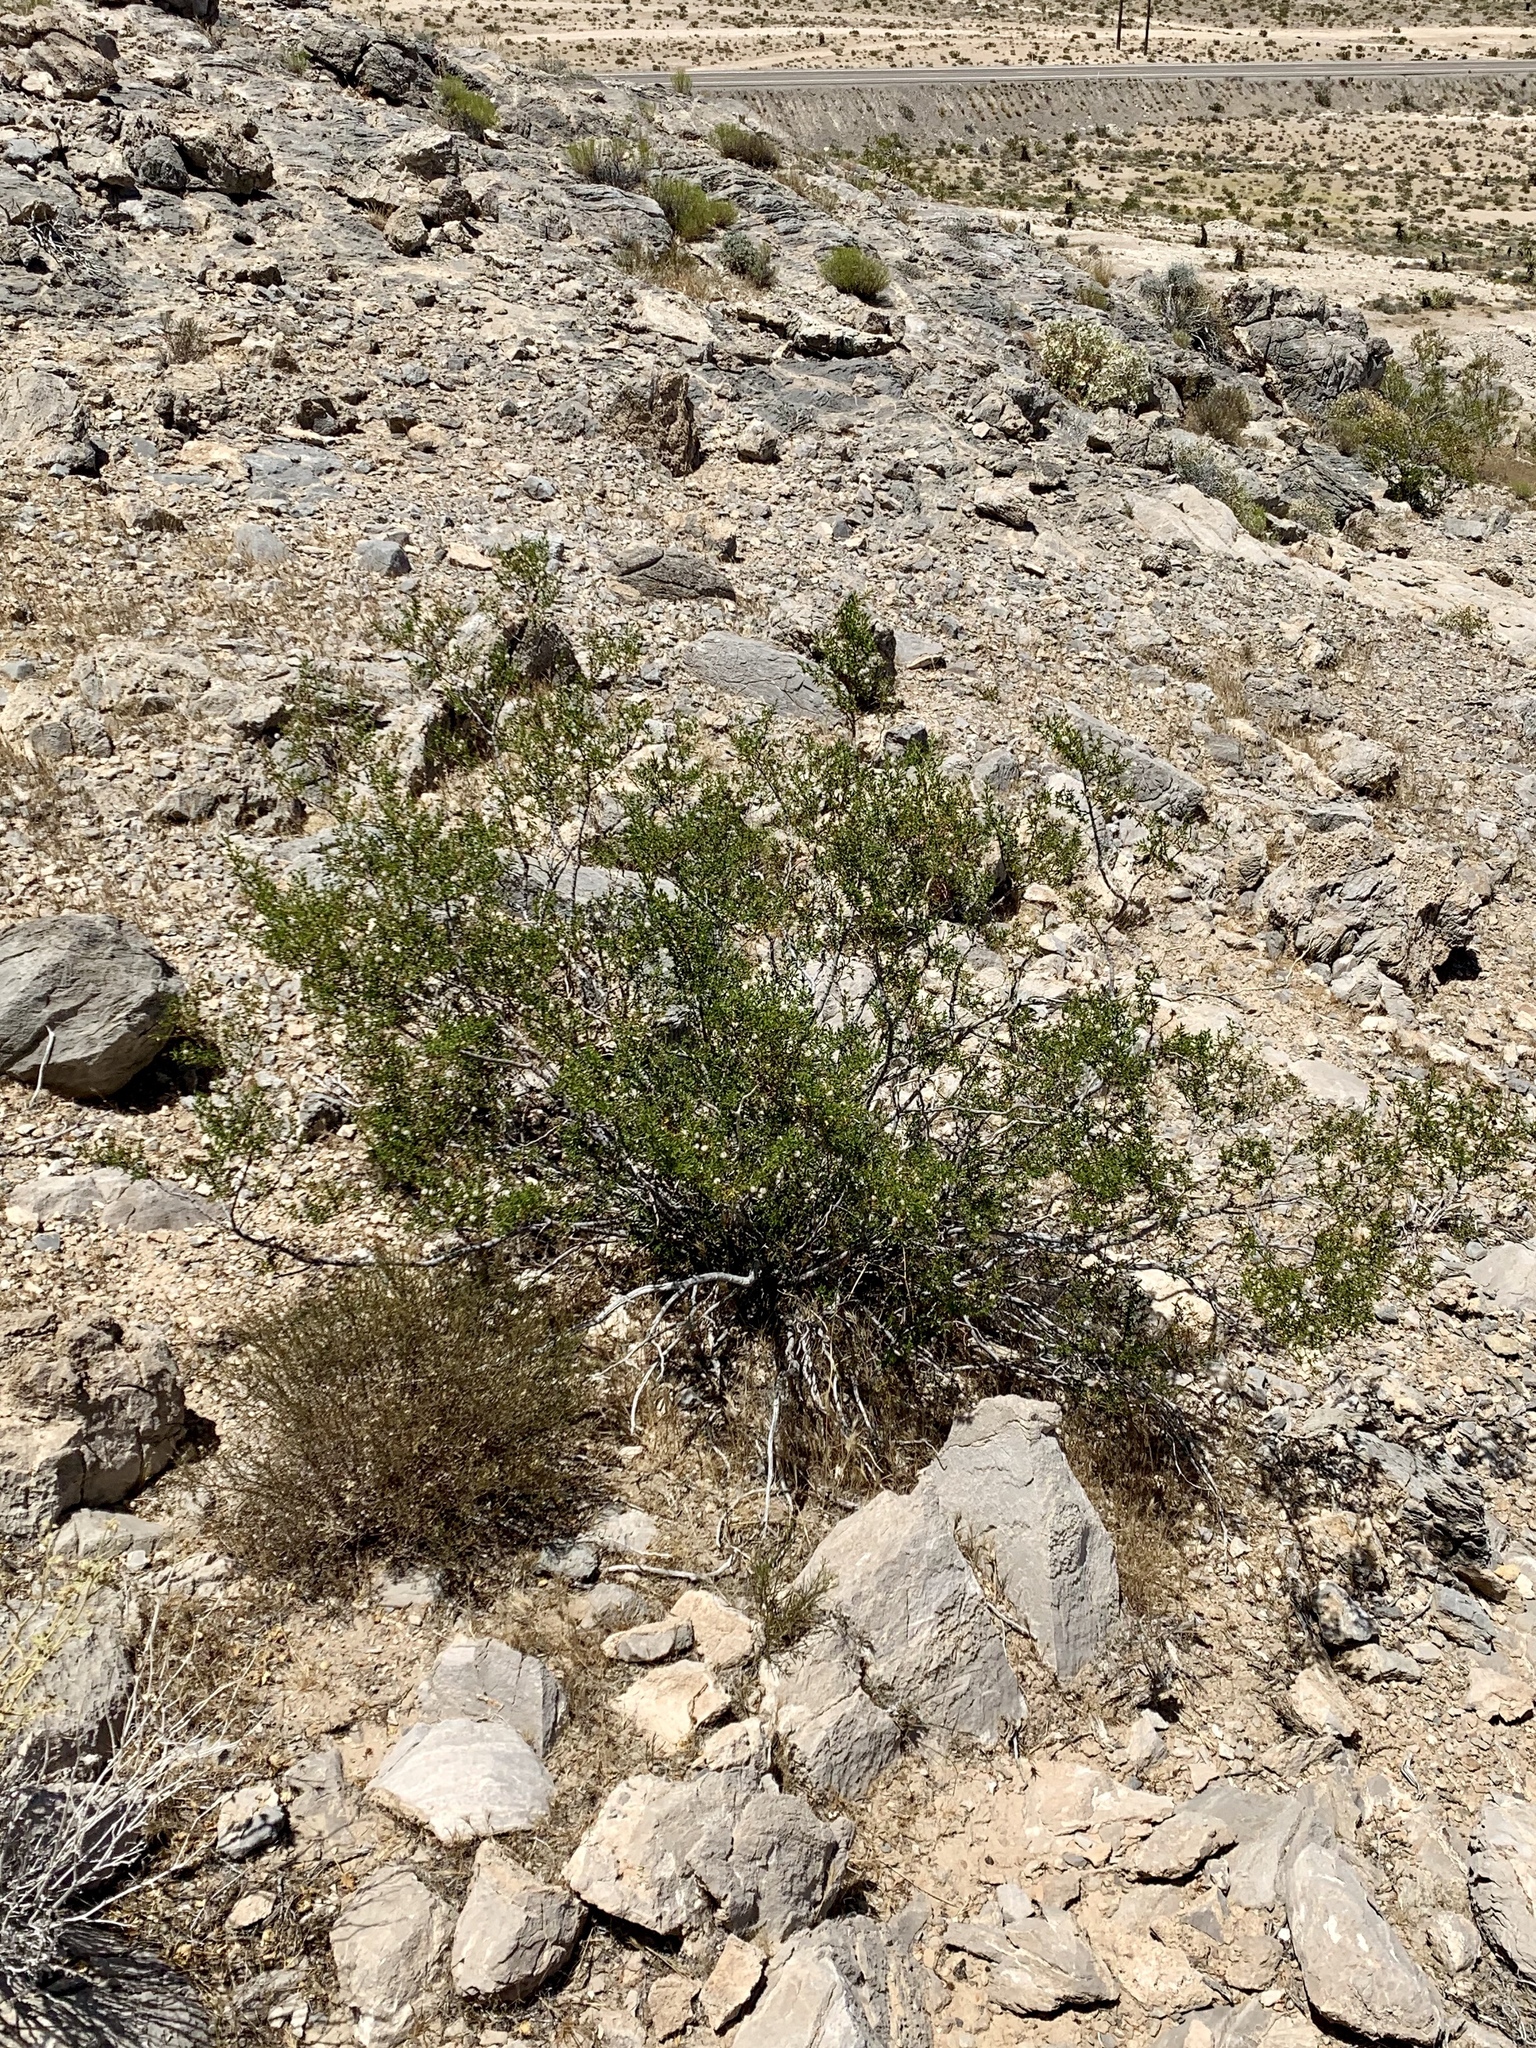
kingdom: Plantae
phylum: Tracheophyta
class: Magnoliopsida
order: Zygophyllales
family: Zygophyllaceae
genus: Larrea
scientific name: Larrea tridentata
